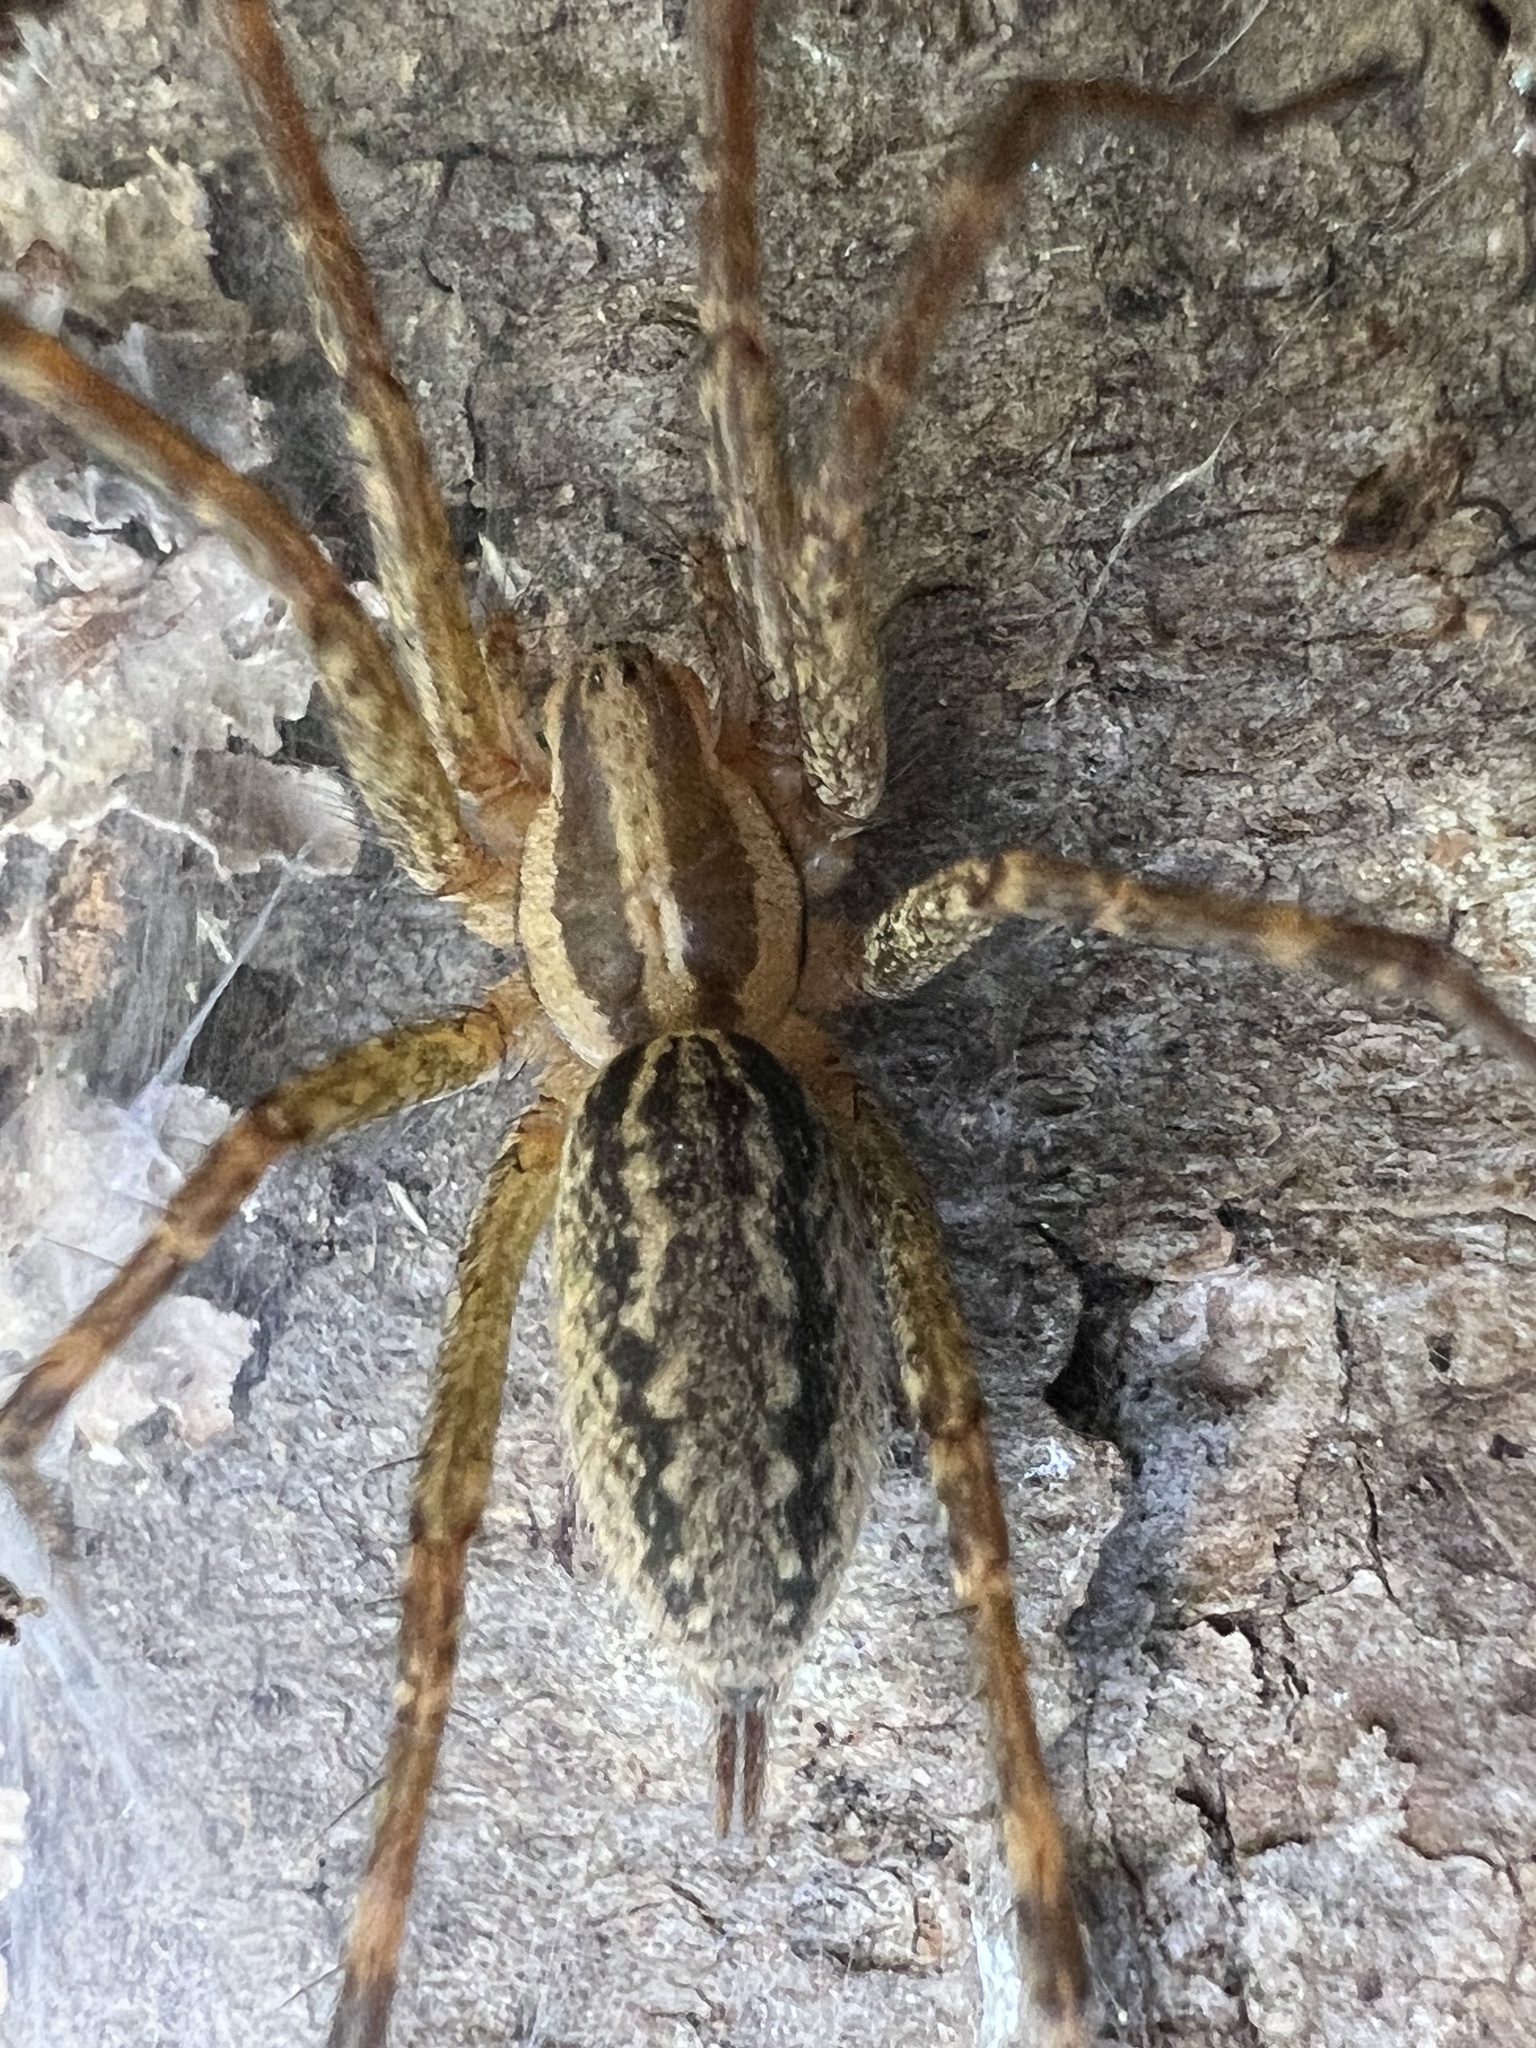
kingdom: Animalia
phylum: Arthropoda
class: Arachnida
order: Araneae
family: Agelenidae
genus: Agelenopsis
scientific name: Agelenopsis
